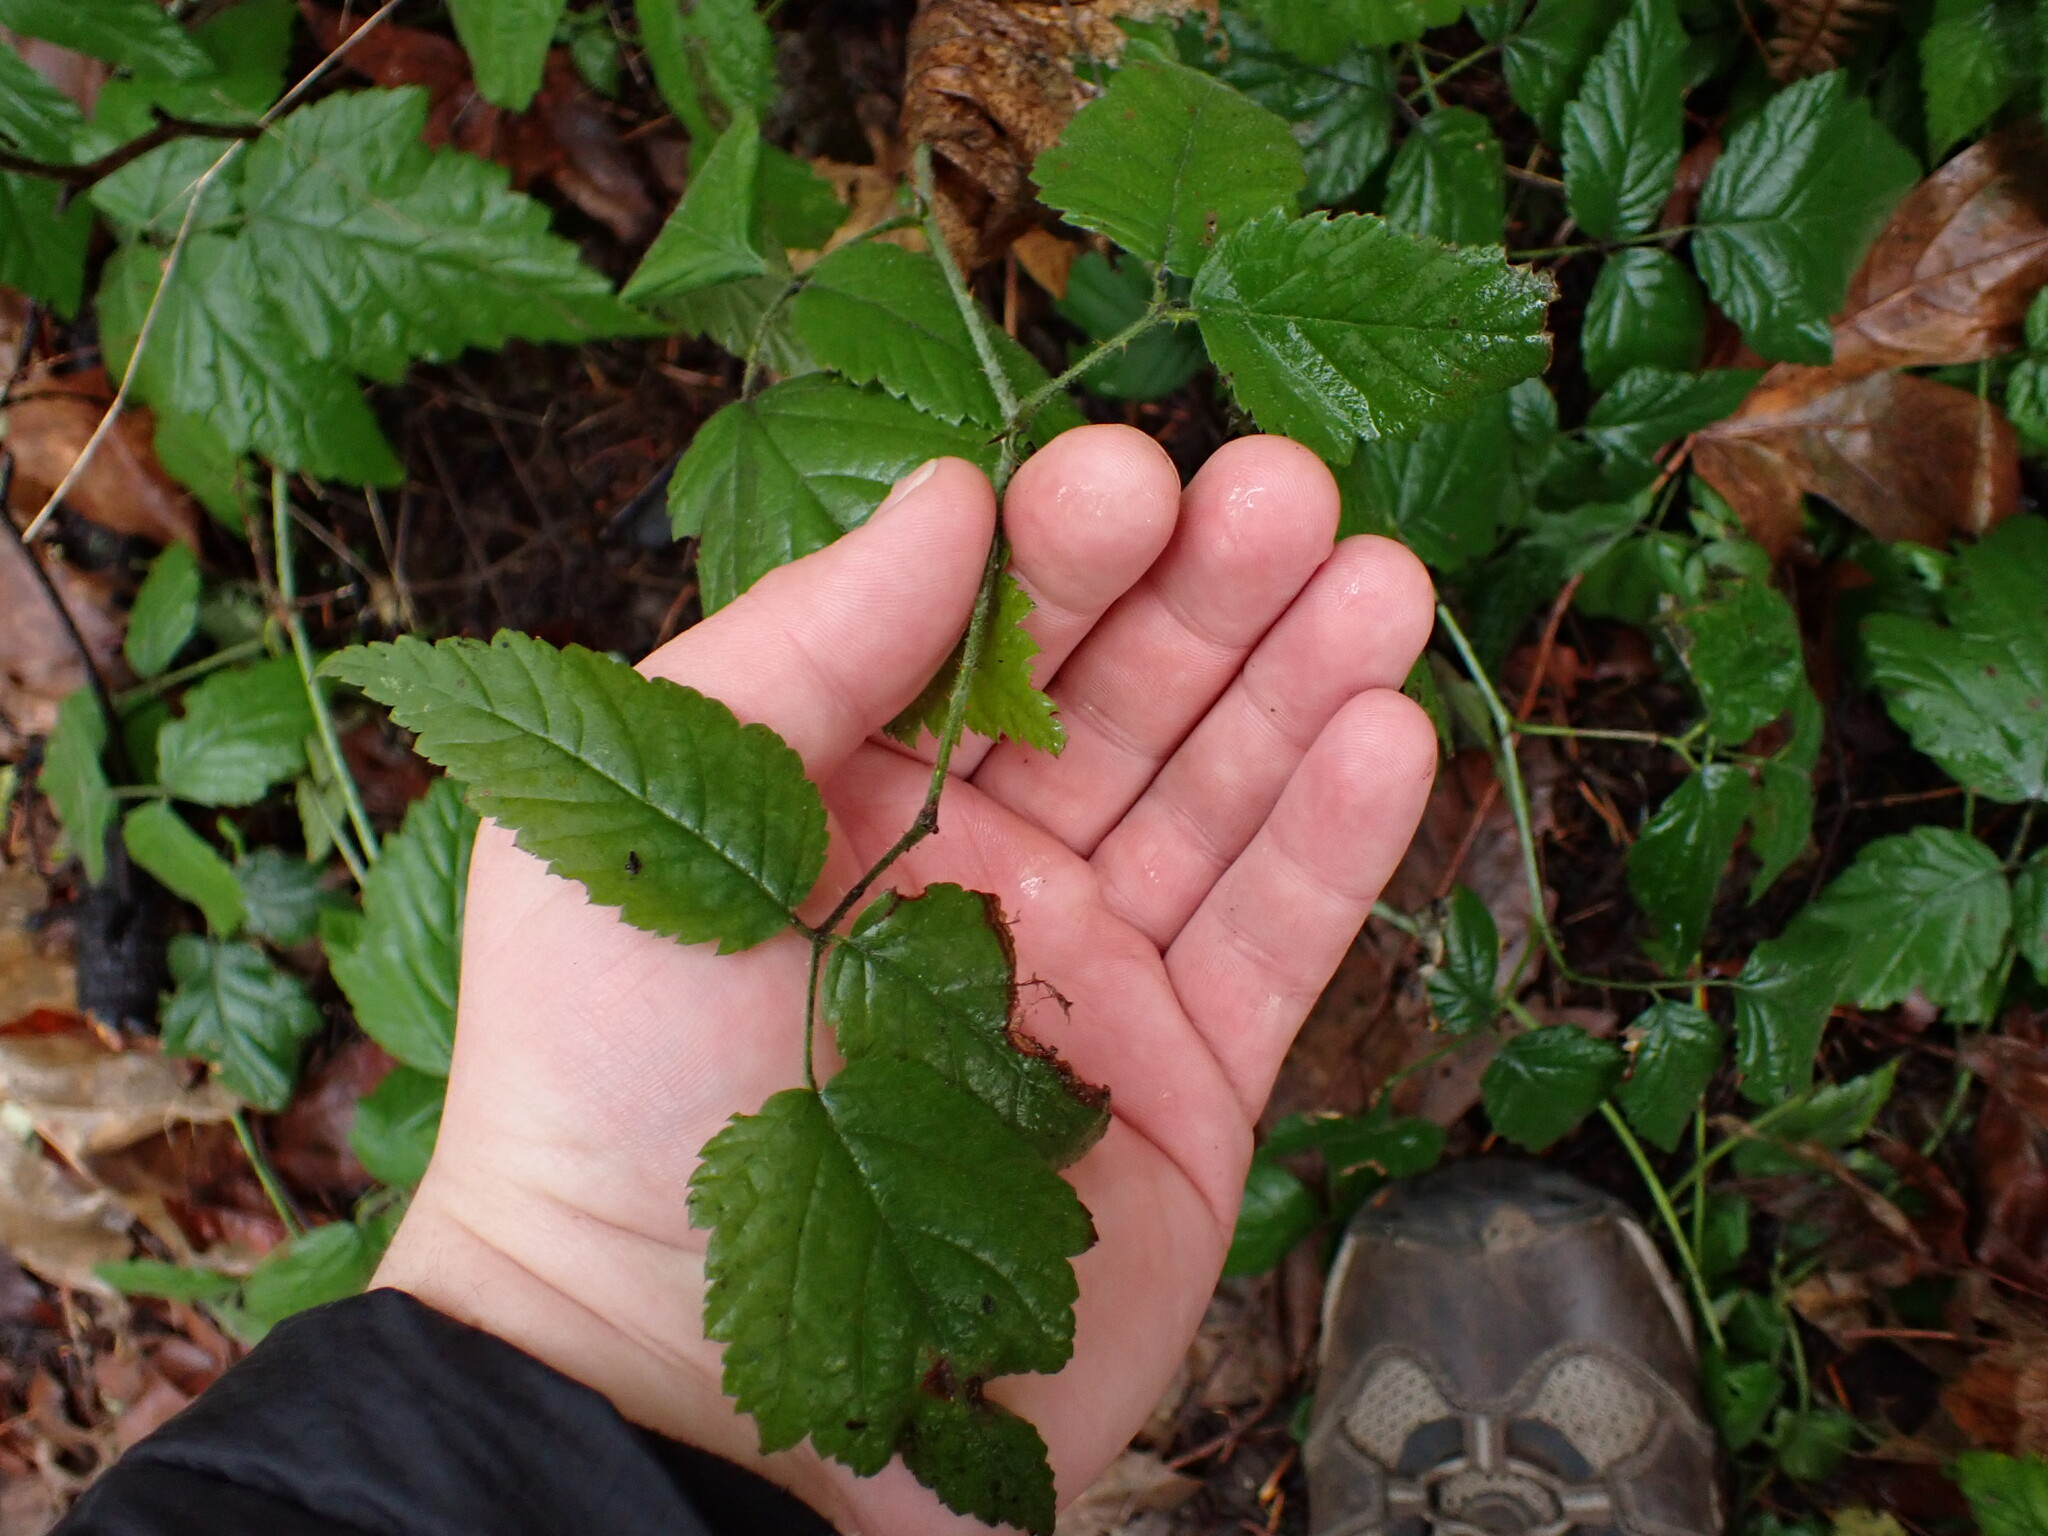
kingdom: Plantae
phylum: Tracheophyta
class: Magnoliopsida
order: Rosales
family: Rosaceae
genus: Rubus
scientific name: Rubus ursinus
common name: Pacific blackberry
